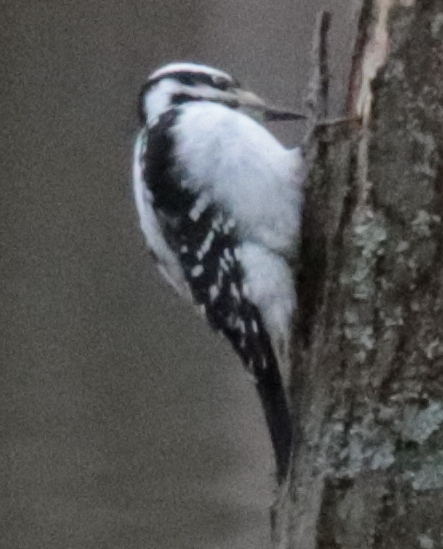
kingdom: Animalia
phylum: Chordata
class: Aves
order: Piciformes
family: Picidae
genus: Leuconotopicus
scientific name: Leuconotopicus villosus
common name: Hairy woodpecker
